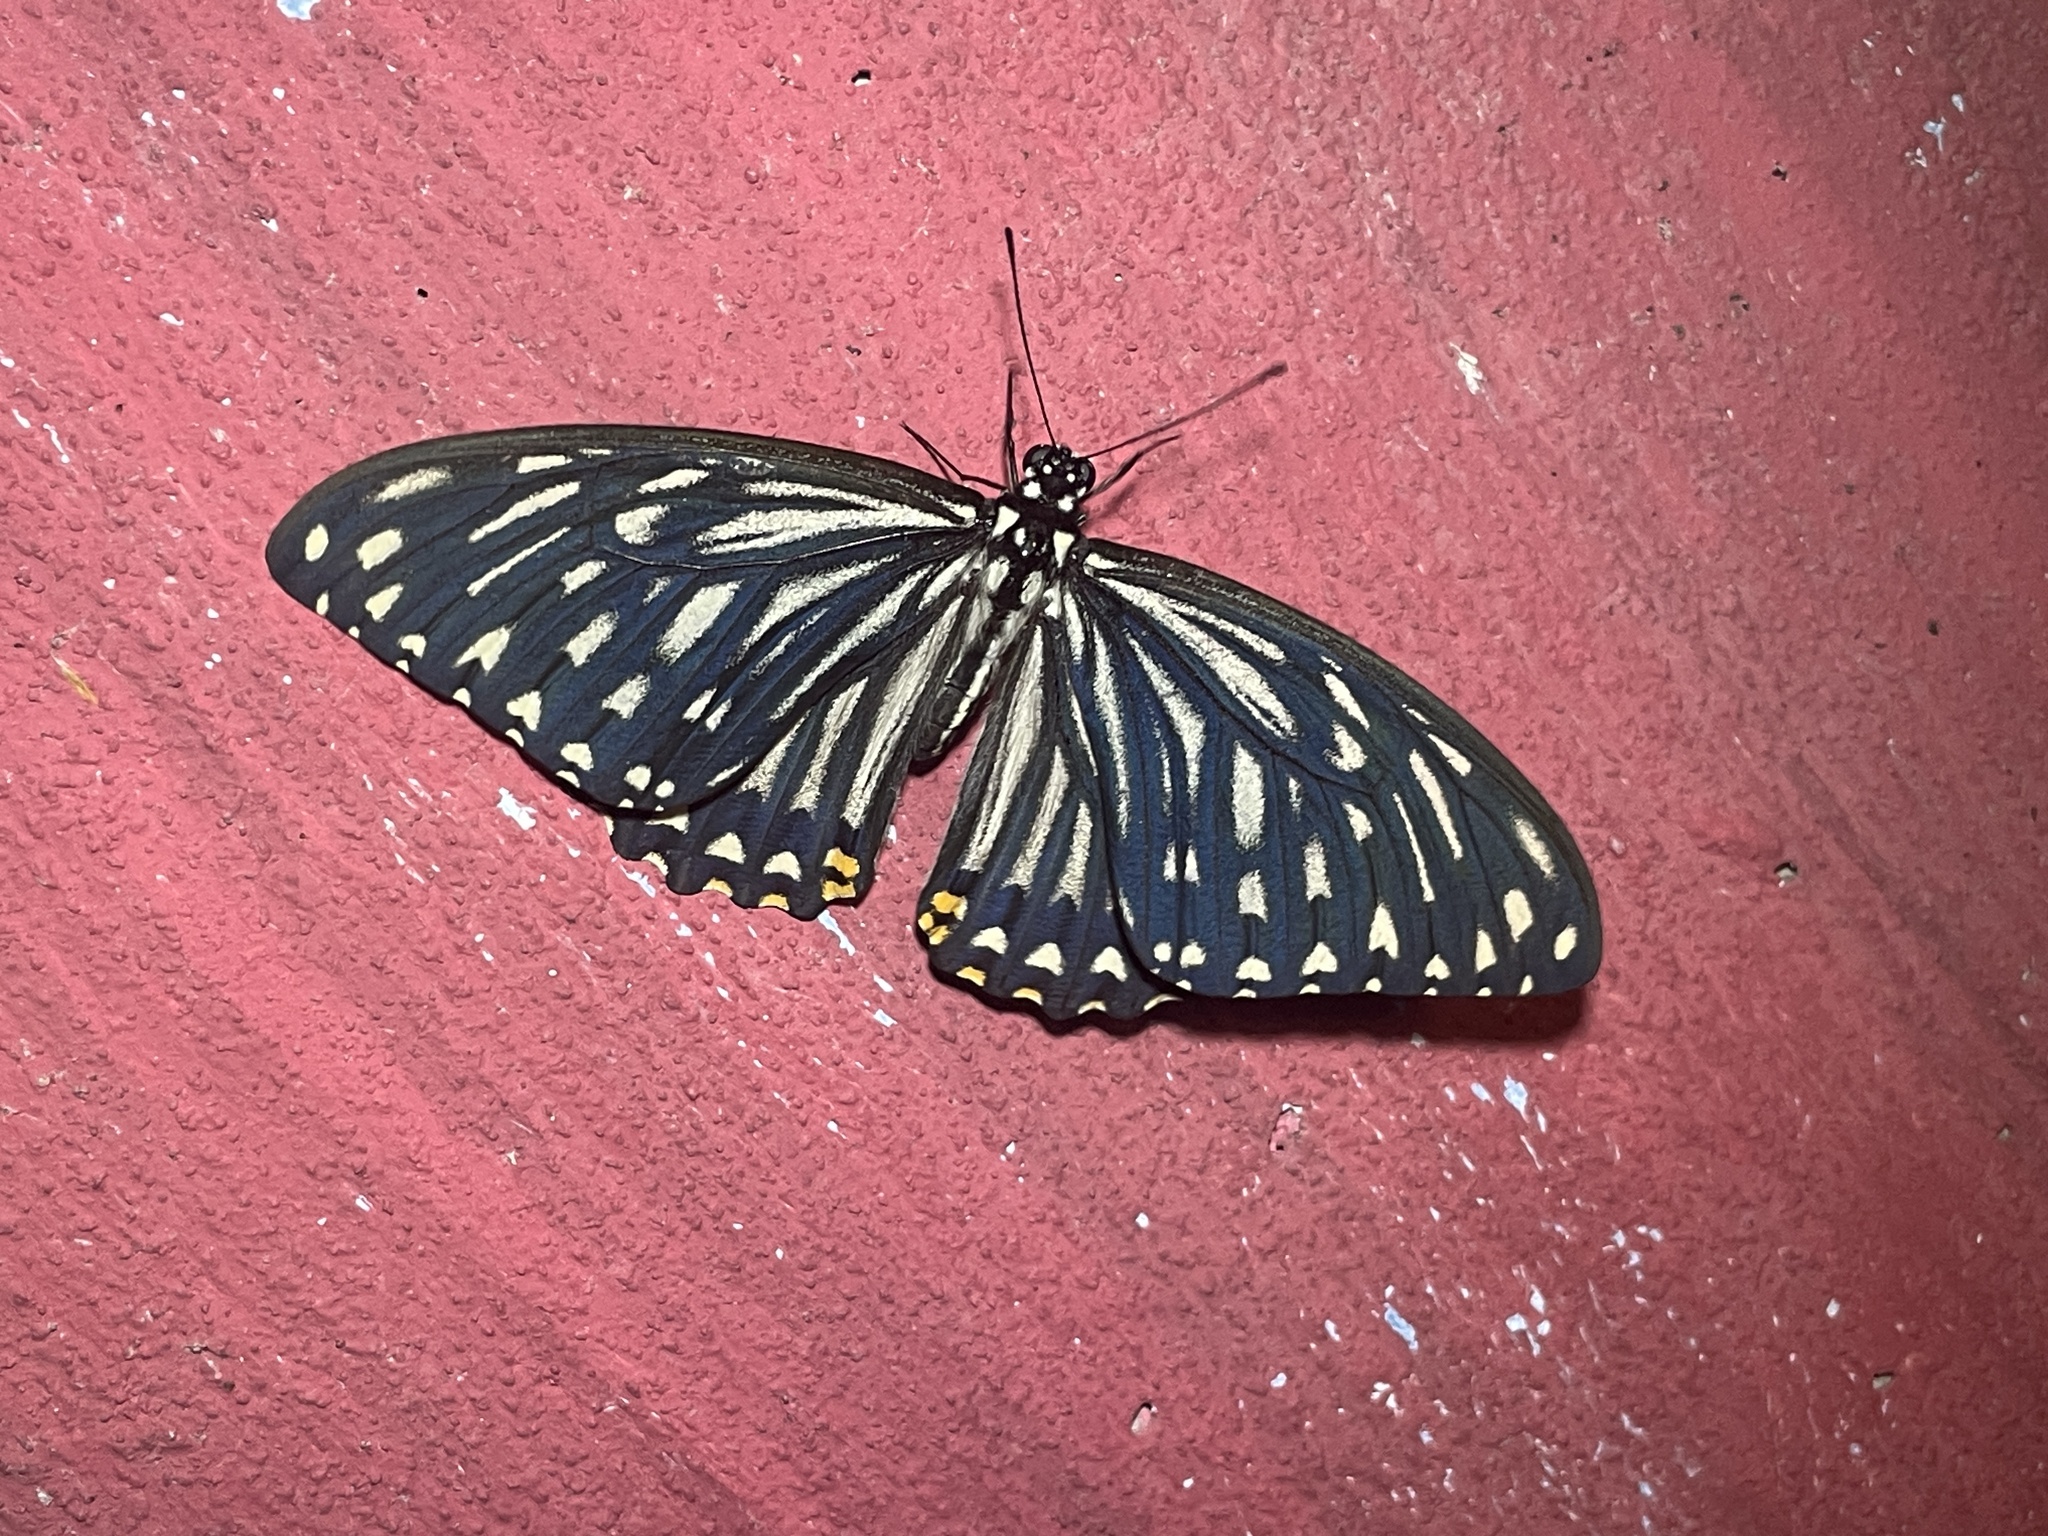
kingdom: Animalia
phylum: Arthropoda
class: Insecta
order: Lepidoptera
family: Papilionidae
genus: Chilasa
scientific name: Chilasa clytia
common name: Common mime
